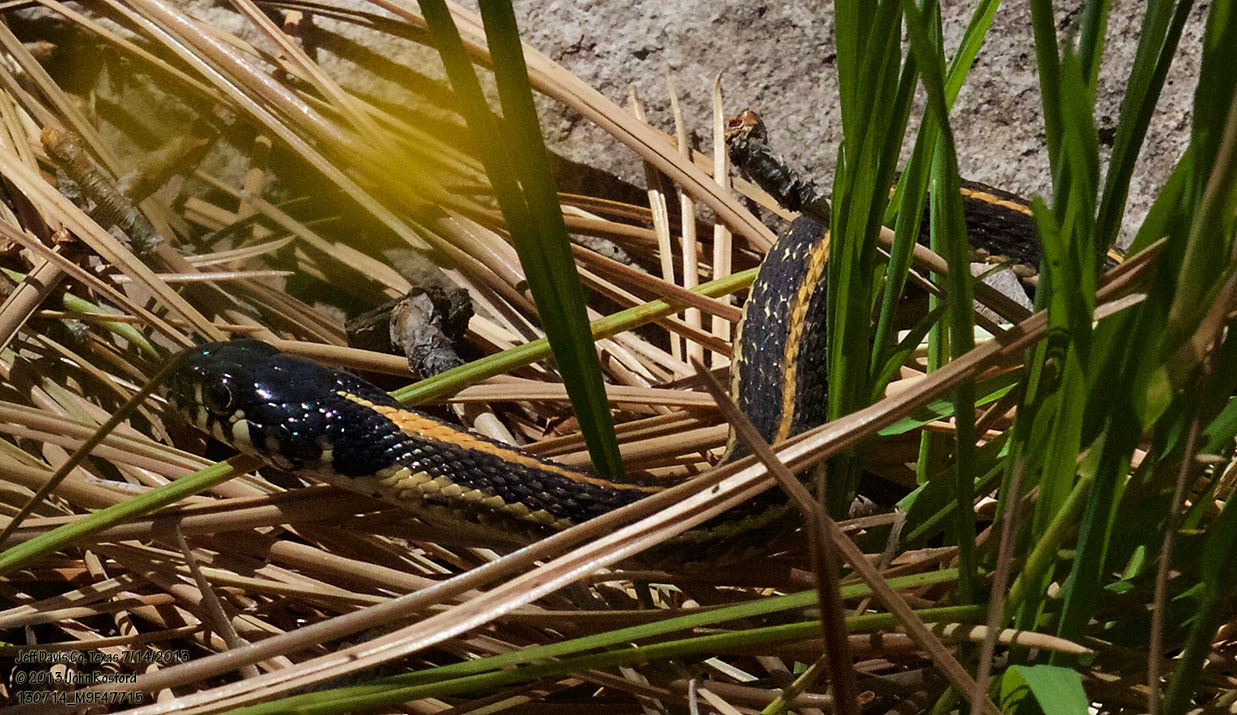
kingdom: Animalia
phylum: Chordata
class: Squamata
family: Colubridae
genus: Thamnophis
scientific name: Thamnophis cyrtopsis
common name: Black-necked gartersnake
